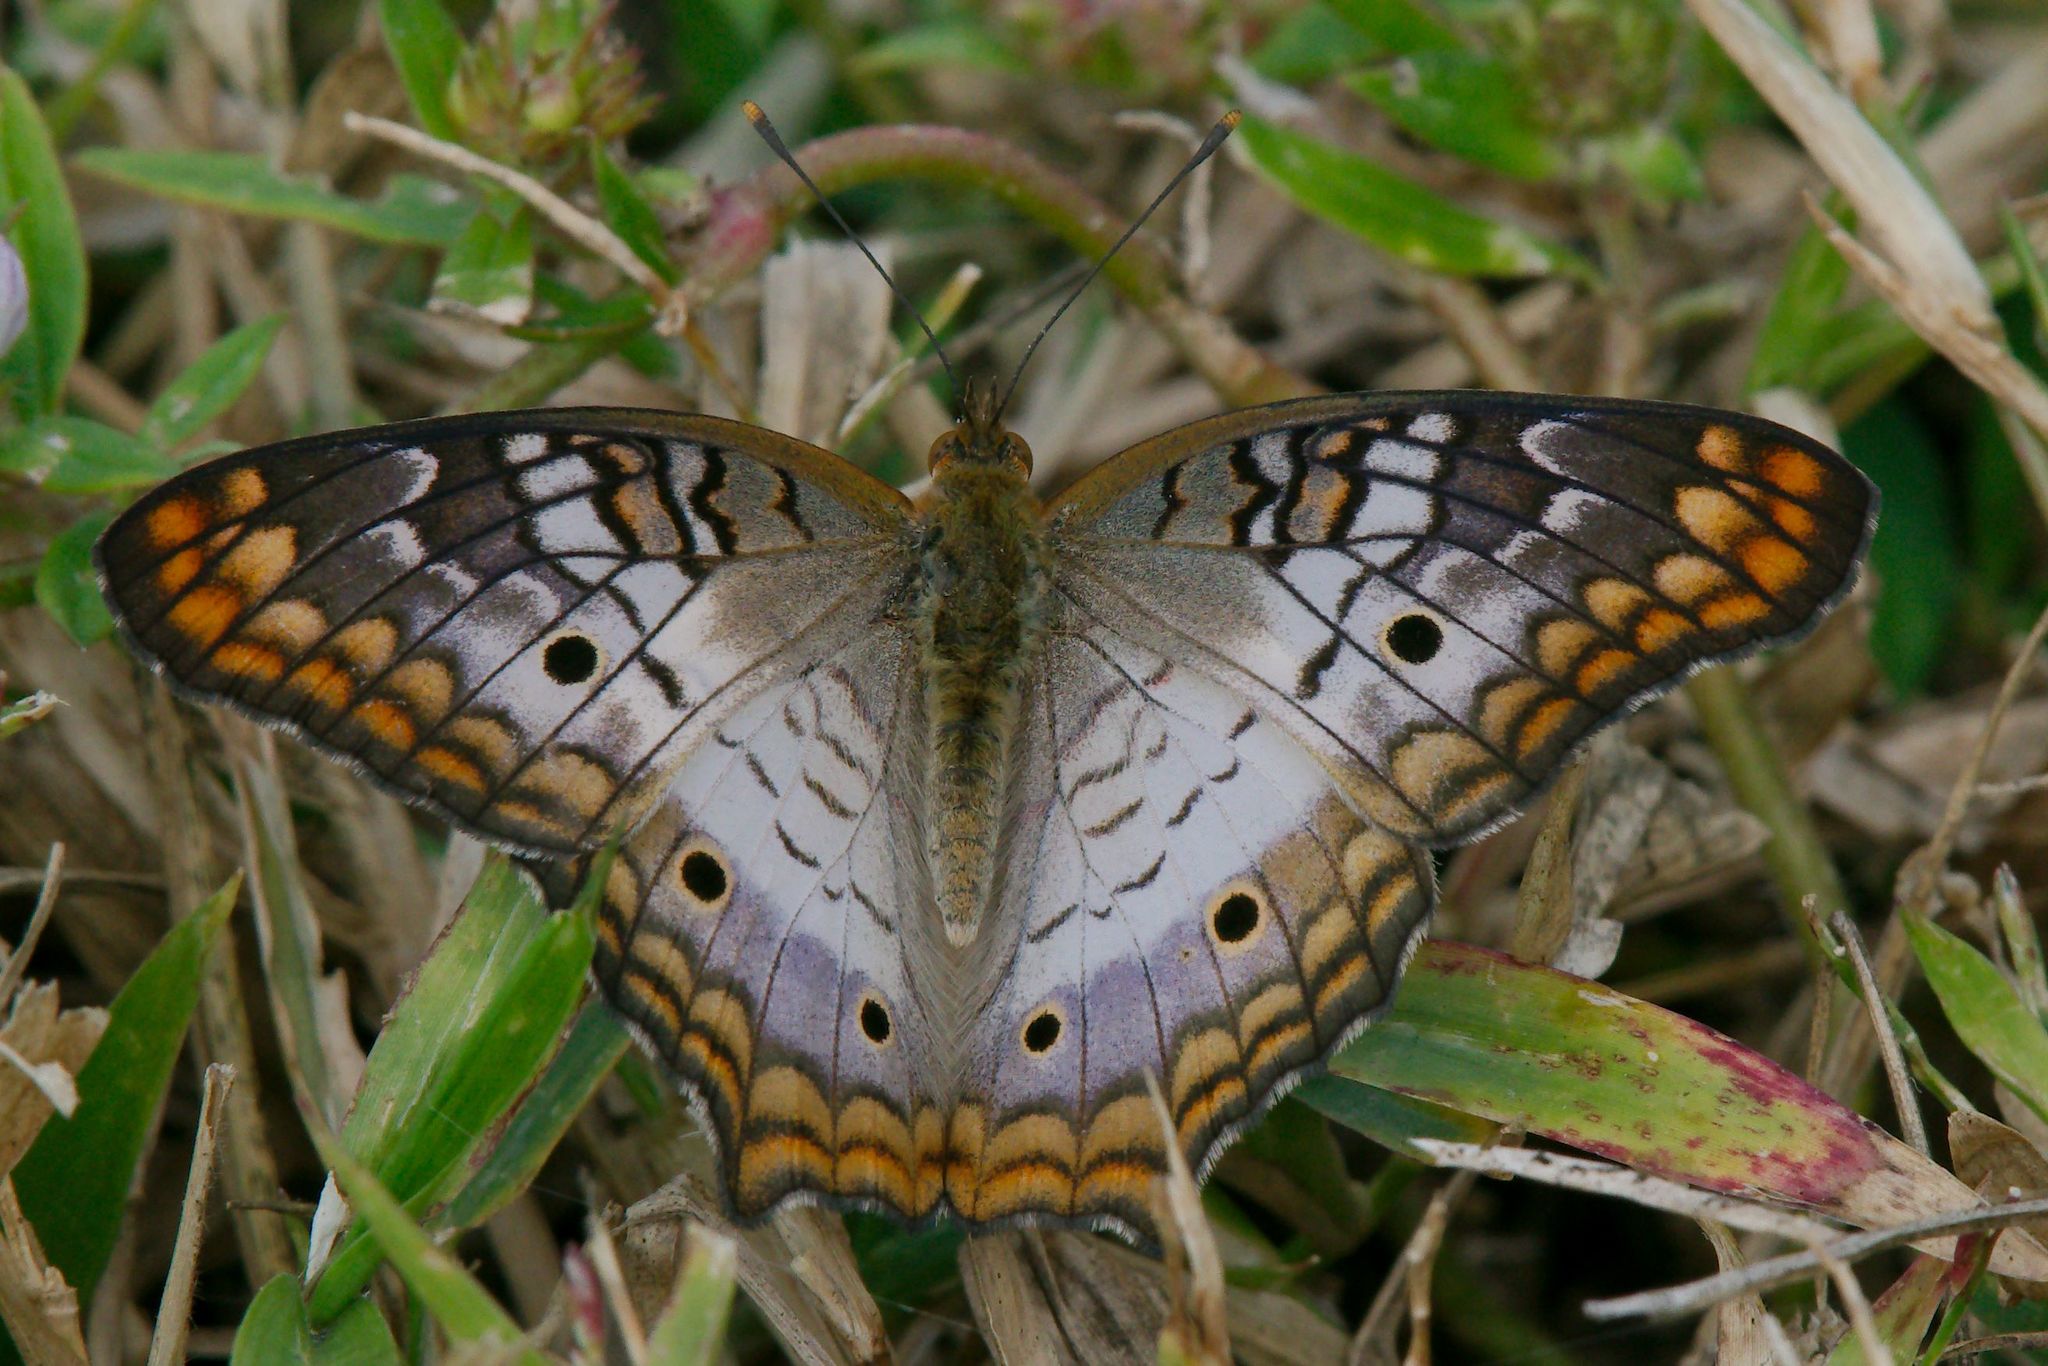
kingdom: Animalia
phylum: Arthropoda
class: Insecta
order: Lepidoptera
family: Nymphalidae
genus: Anartia
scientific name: Anartia jatrophae
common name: White peacock
